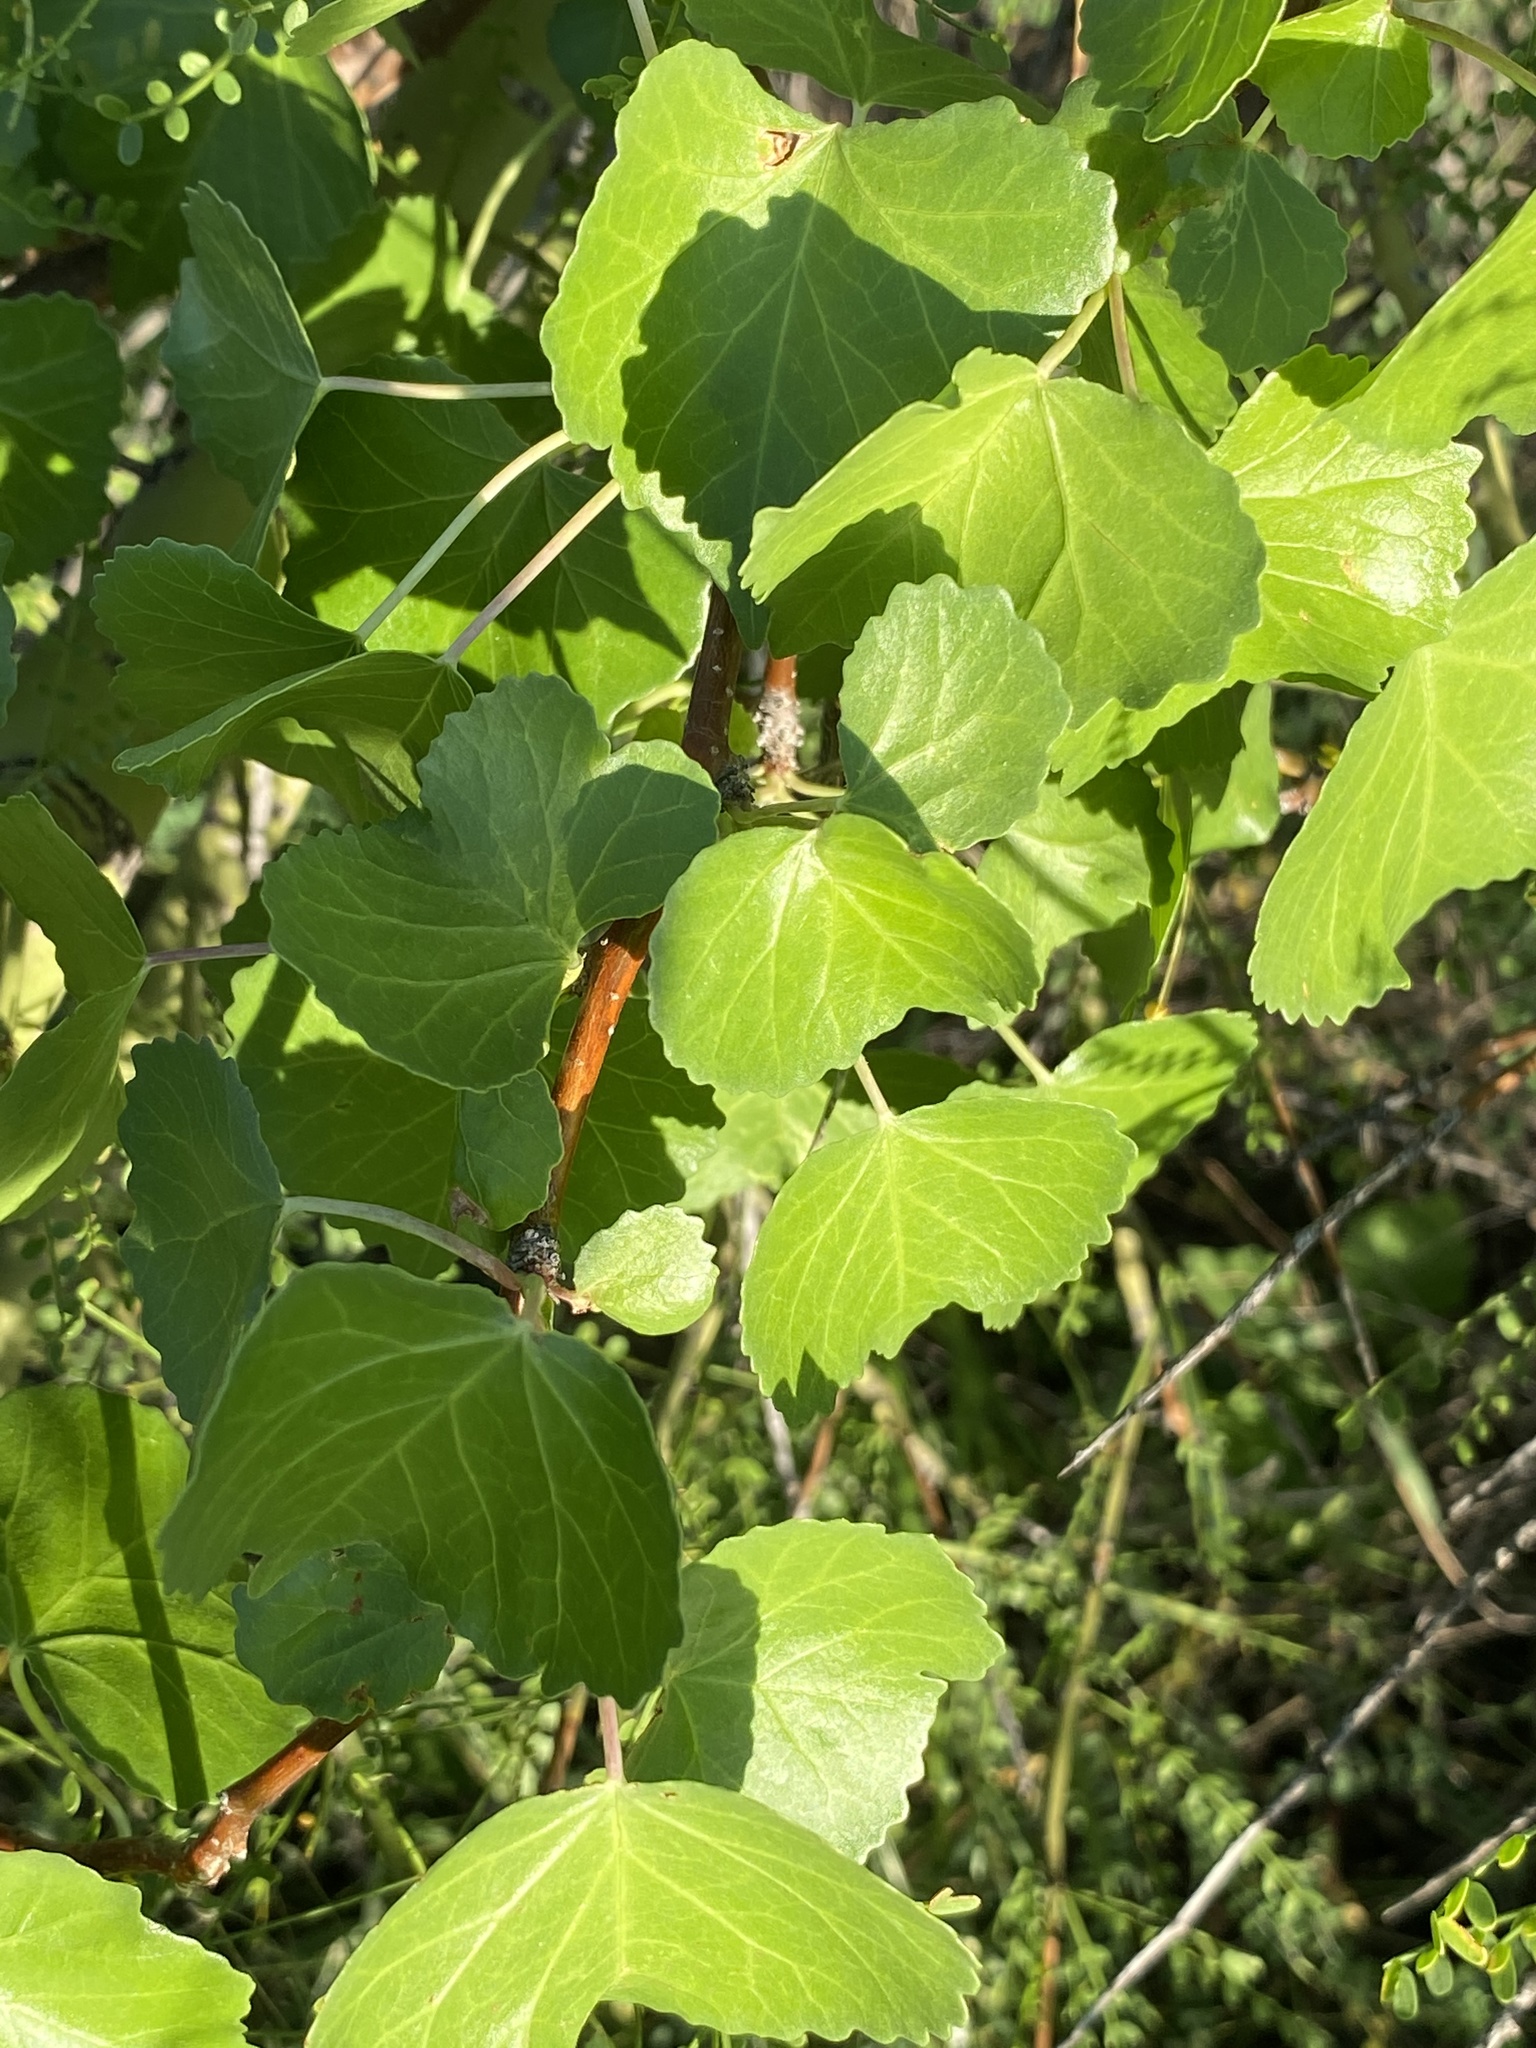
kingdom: Plantae
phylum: Tracheophyta
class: Magnoliopsida
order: Malpighiales
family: Euphorbiaceae
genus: Jatropha
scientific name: Jatropha cardiophylla
